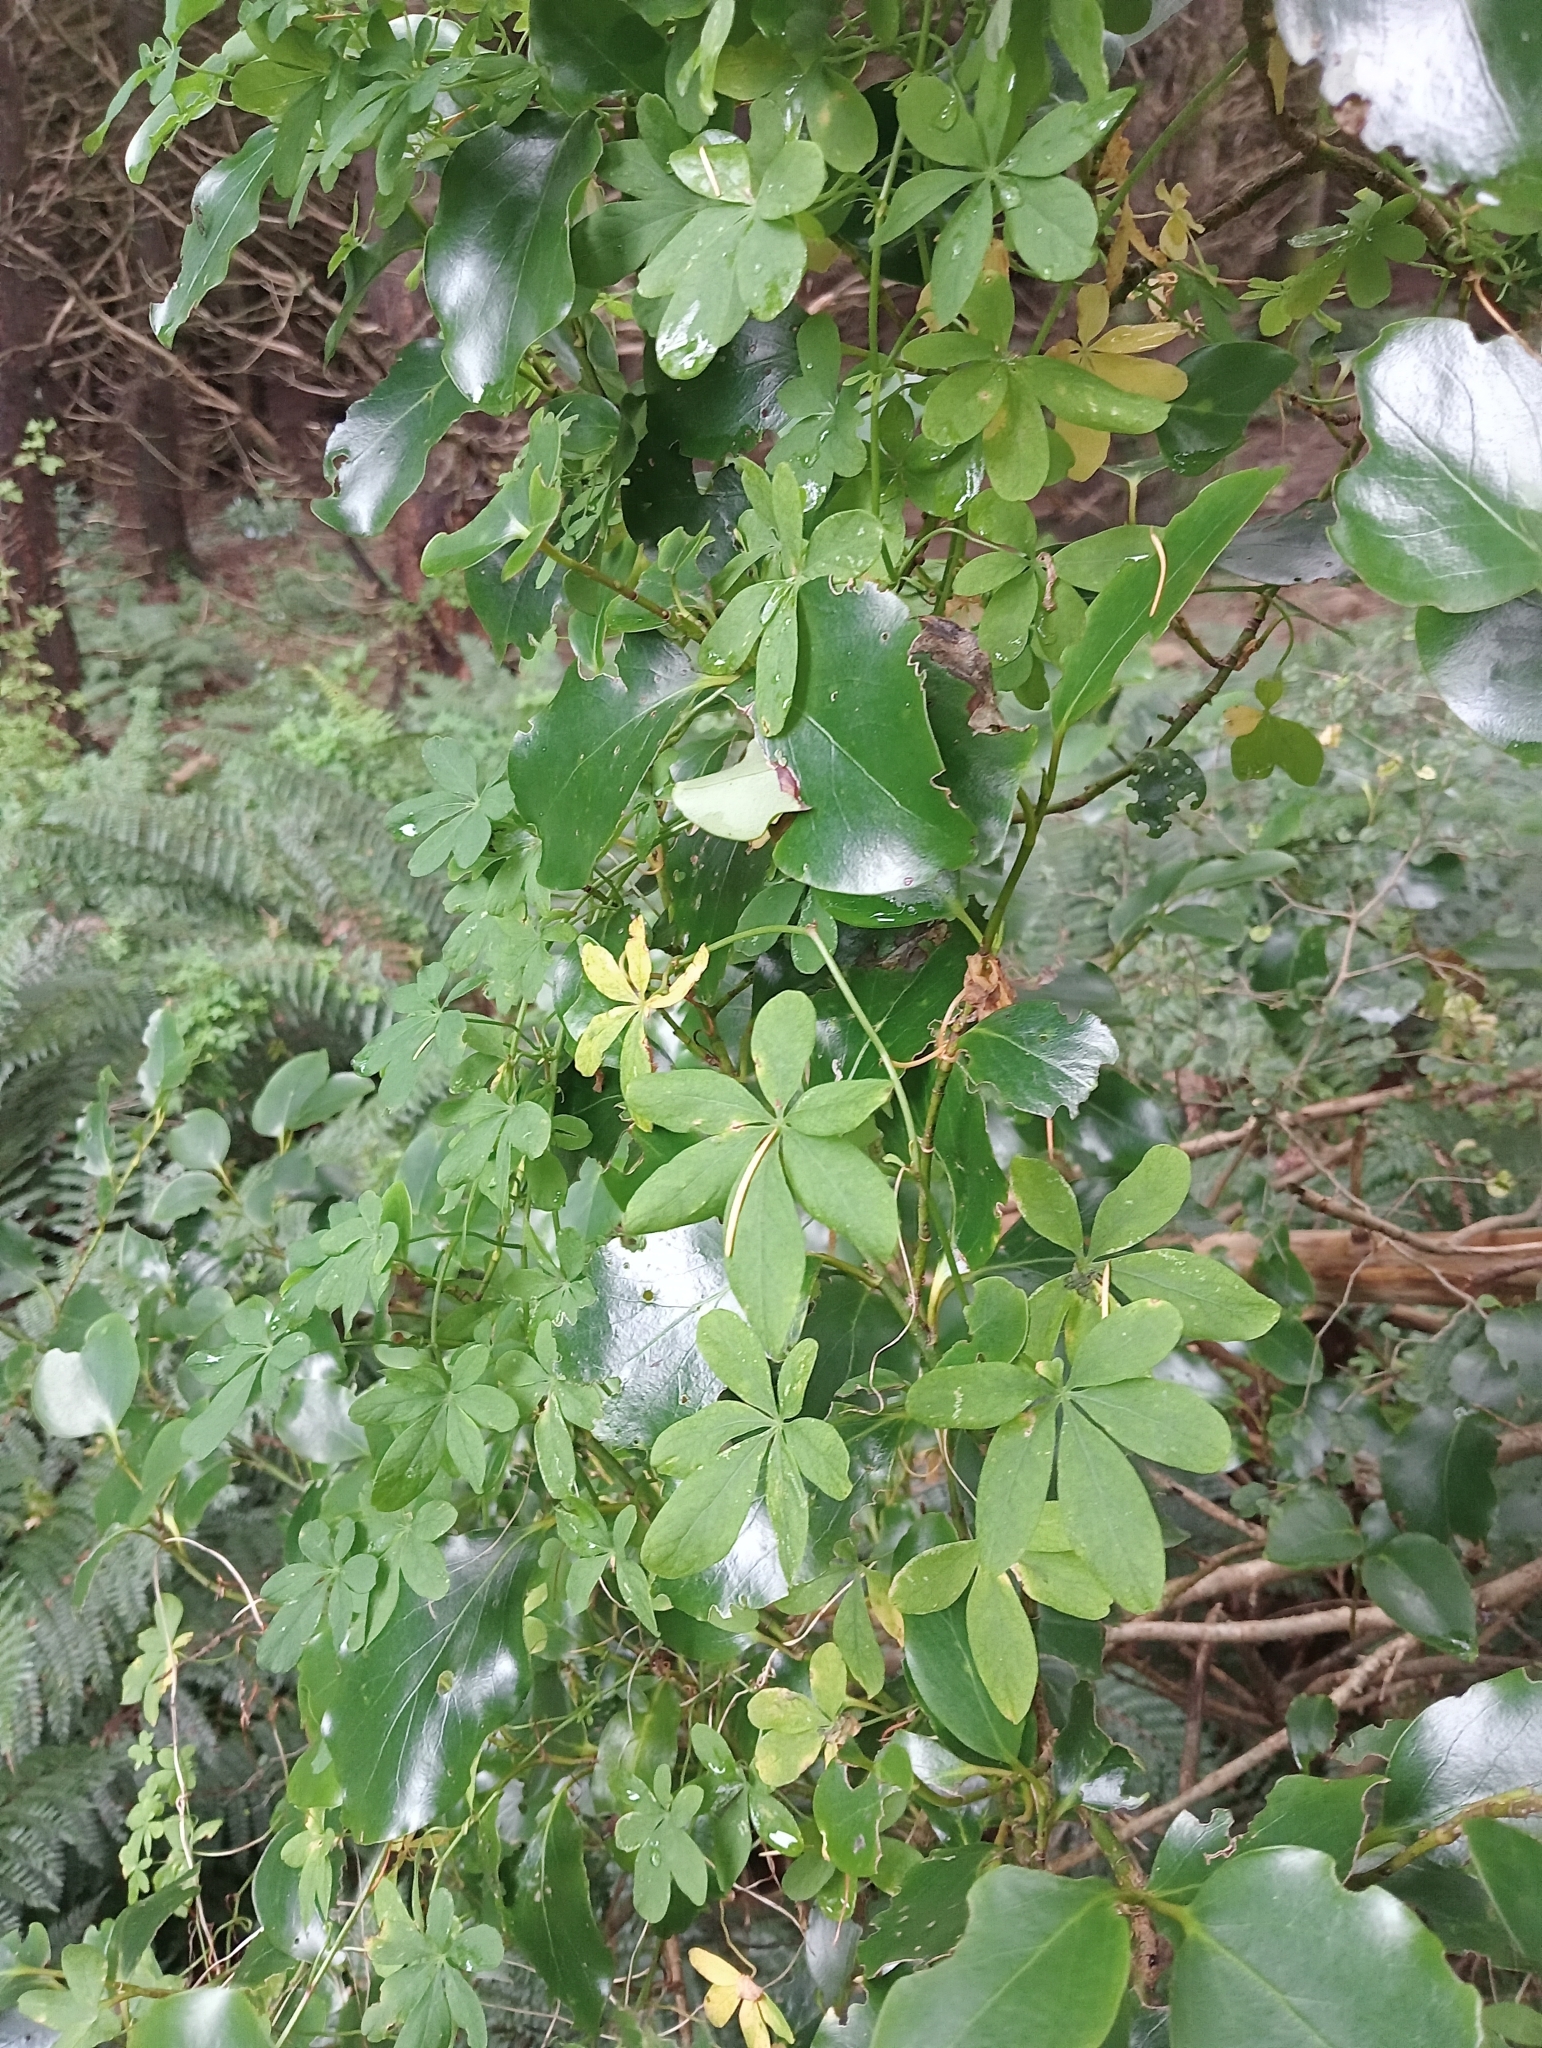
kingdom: Plantae
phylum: Tracheophyta
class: Magnoliopsida
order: Brassicales
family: Tropaeolaceae
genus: Tropaeolum
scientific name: Tropaeolum speciosum
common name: Flame nasturtium
